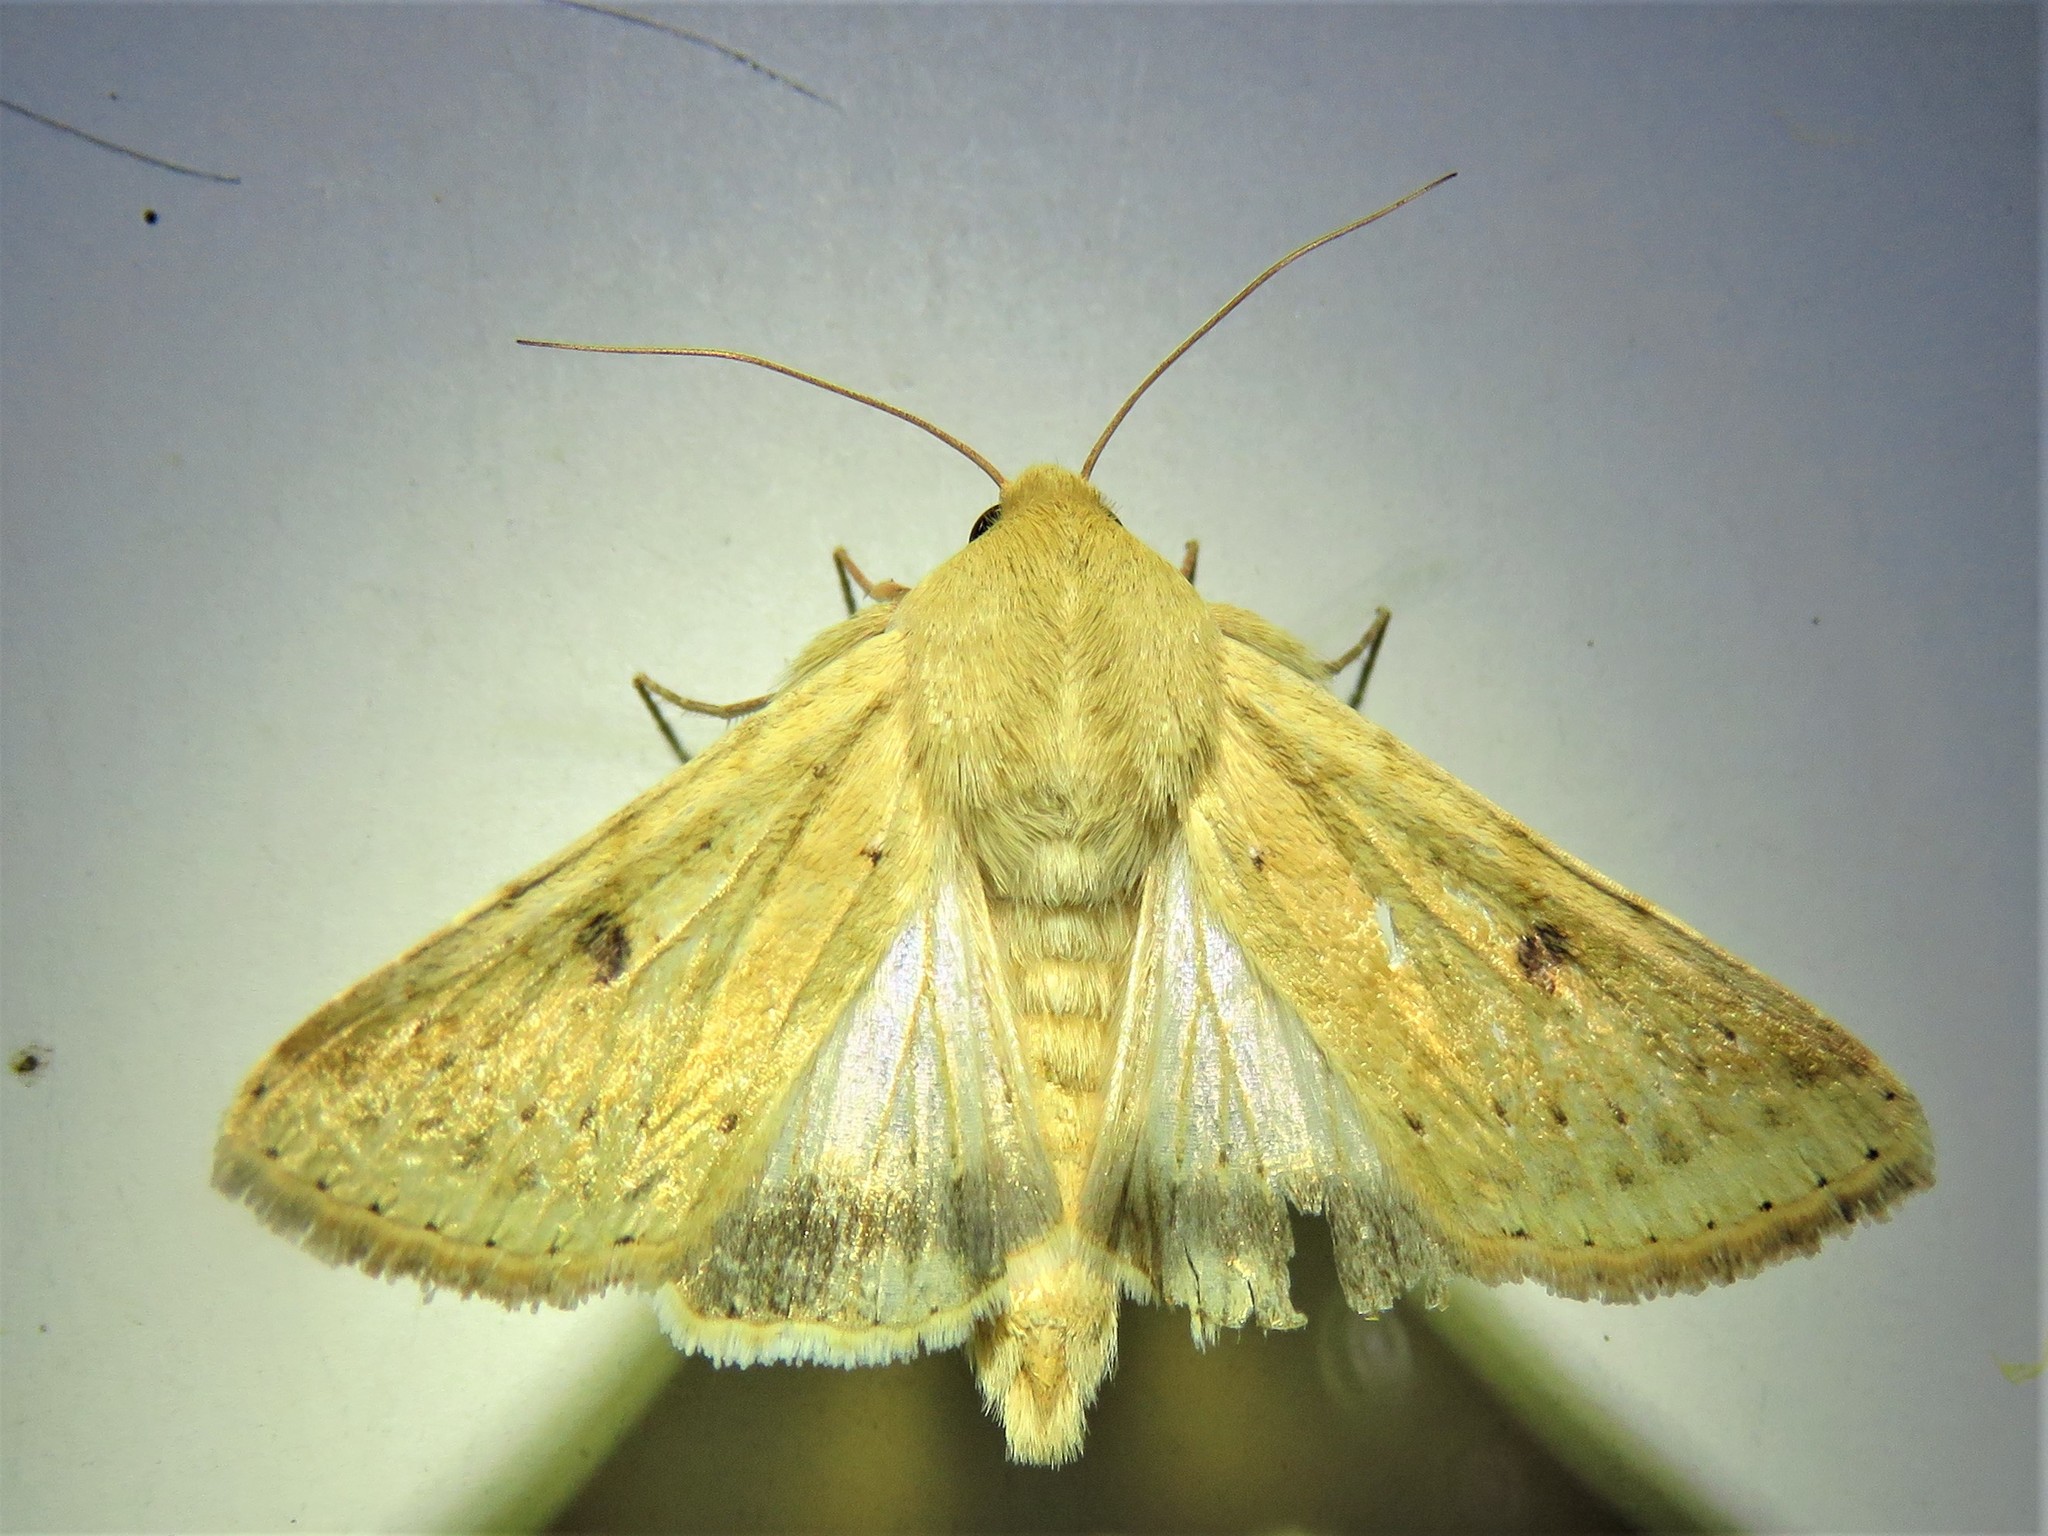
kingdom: Animalia
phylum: Arthropoda
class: Insecta
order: Lepidoptera
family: Noctuidae
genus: Helicoverpa
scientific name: Helicoverpa zea
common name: Bollworm
